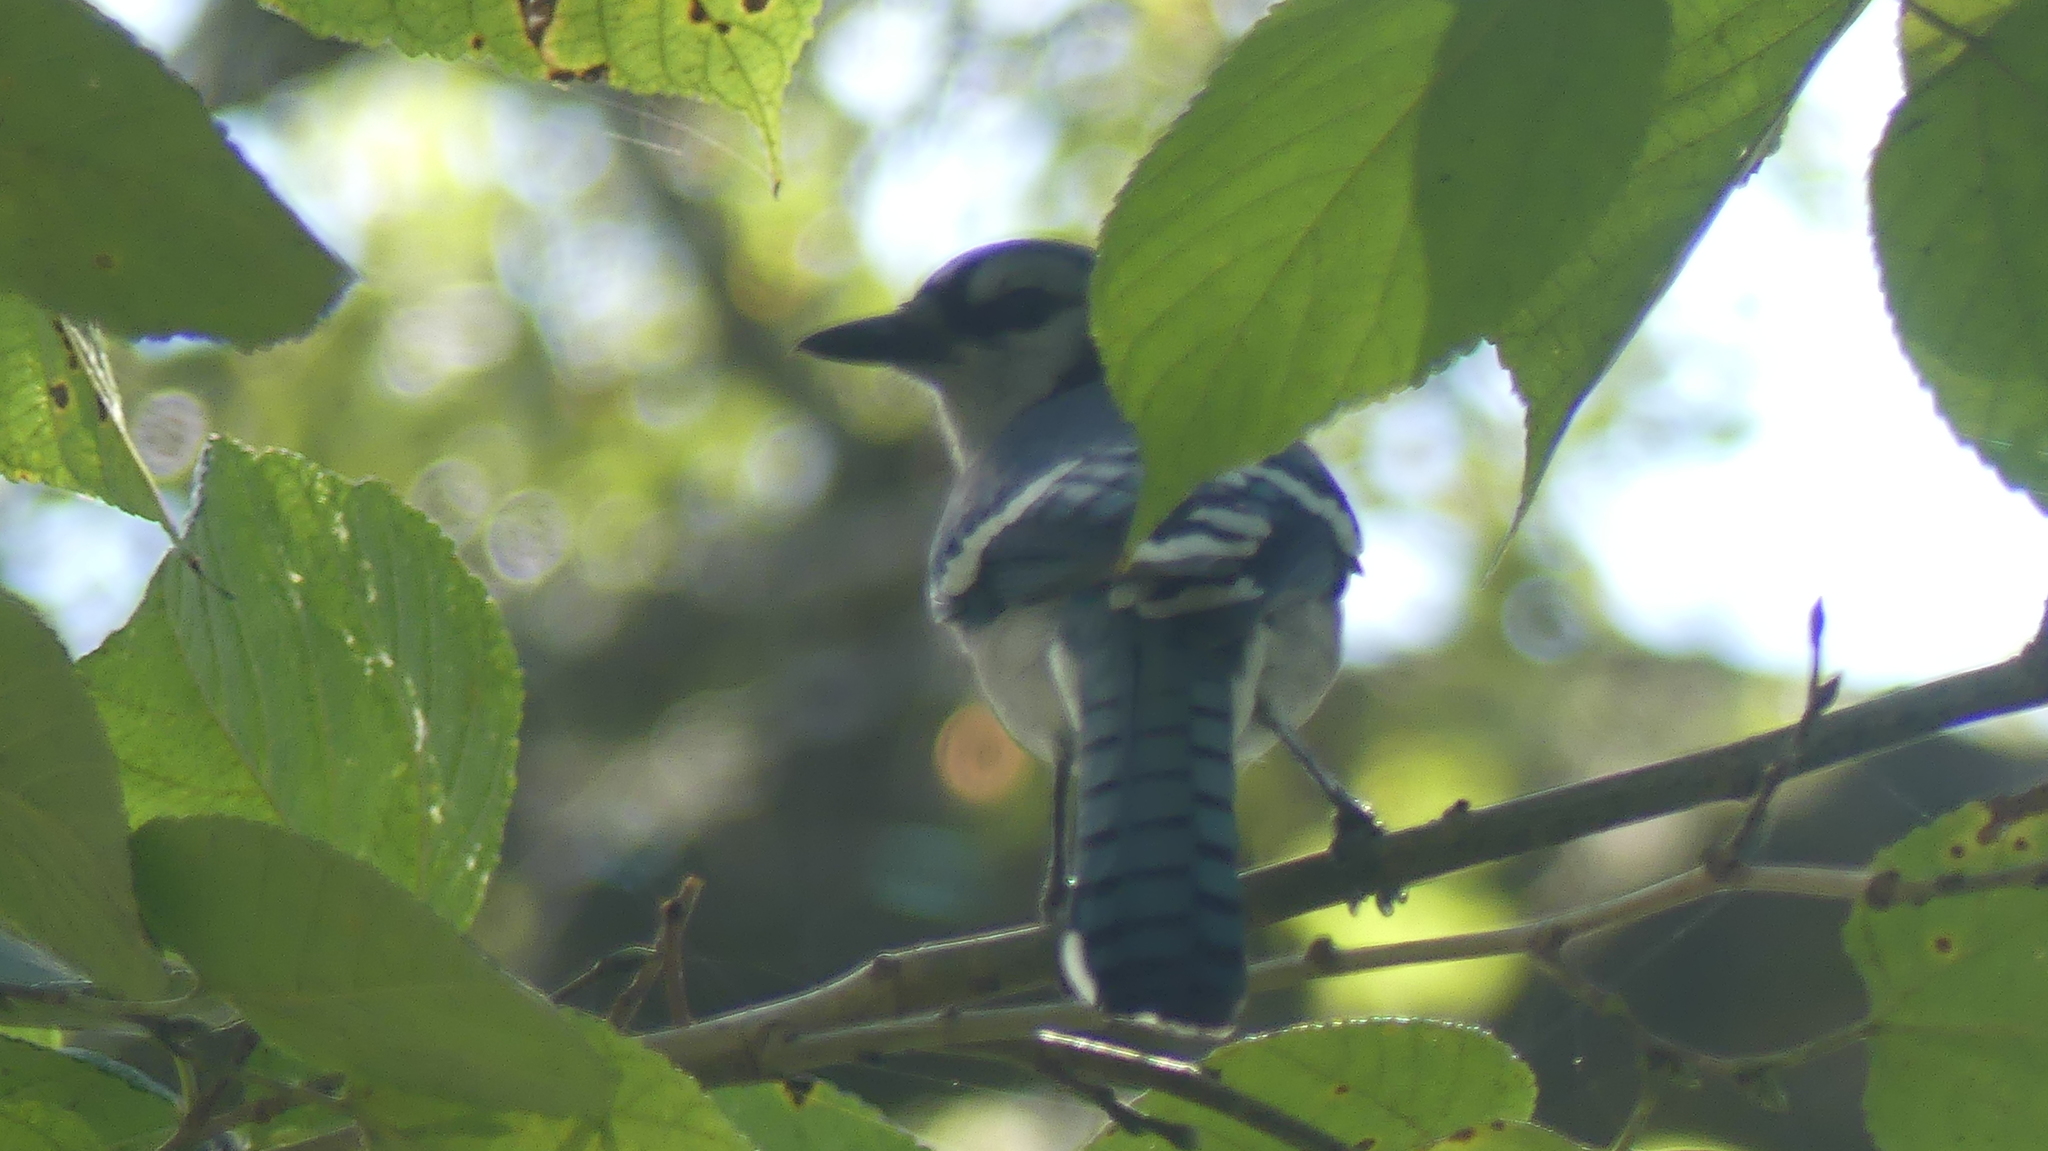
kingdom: Animalia
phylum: Chordata
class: Aves
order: Passeriformes
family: Corvidae
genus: Cyanocitta
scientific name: Cyanocitta cristata
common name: Blue jay
